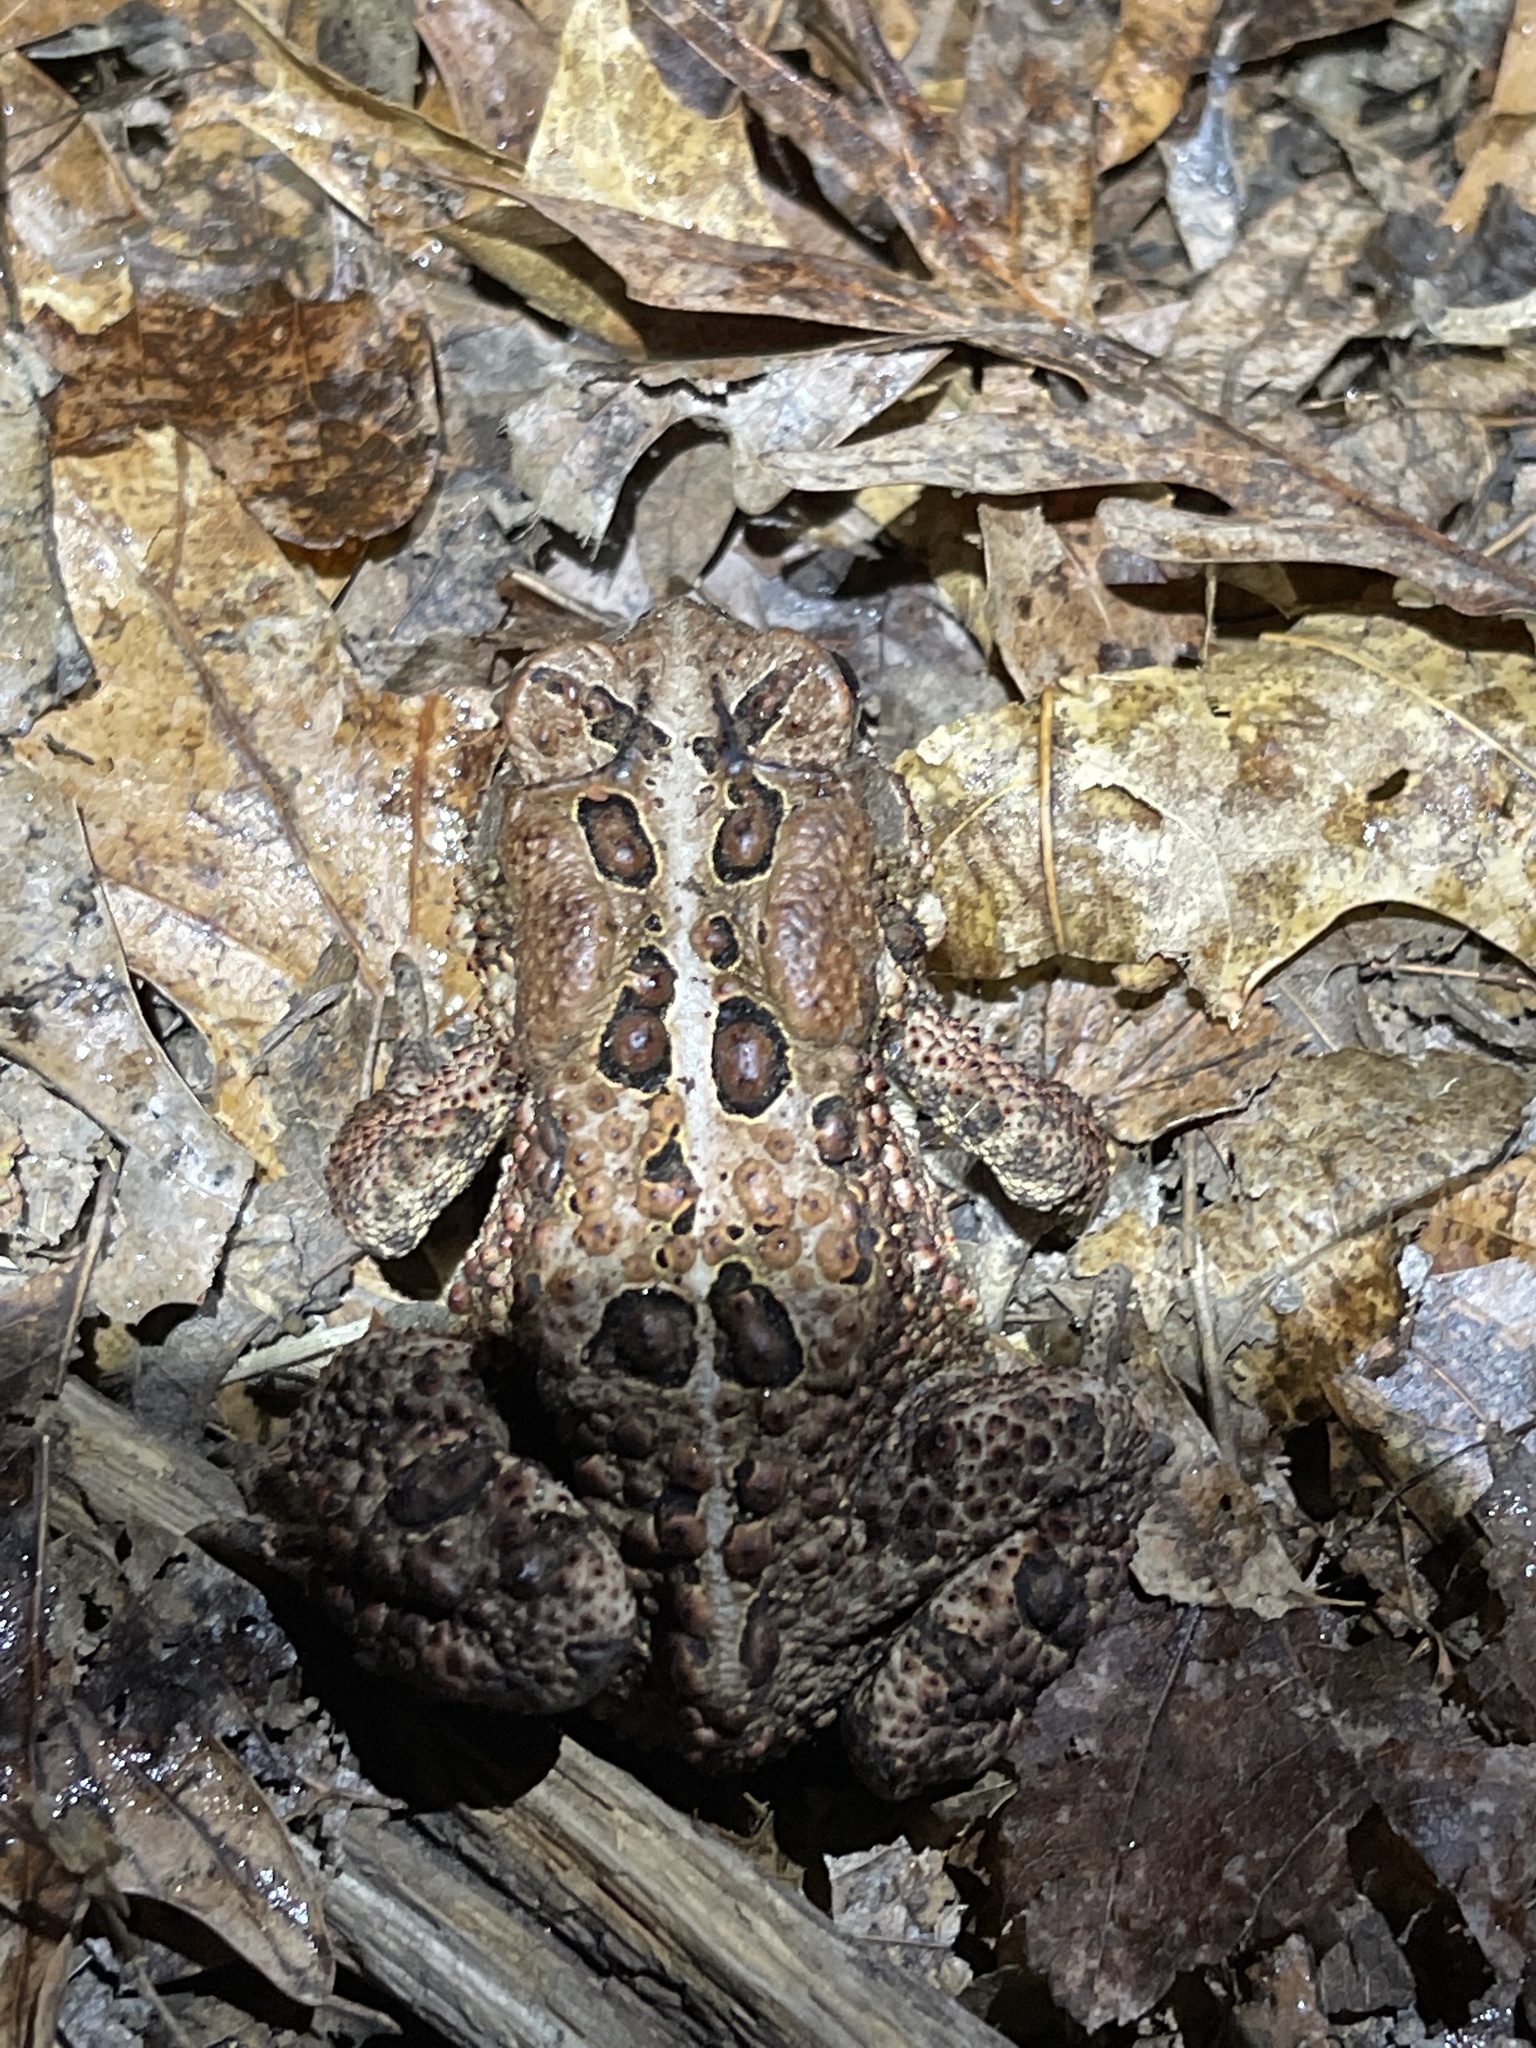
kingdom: Animalia
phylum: Chordata
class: Amphibia
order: Anura
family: Bufonidae
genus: Anaxyrus
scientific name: Anaxyrus americanus
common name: American toad
